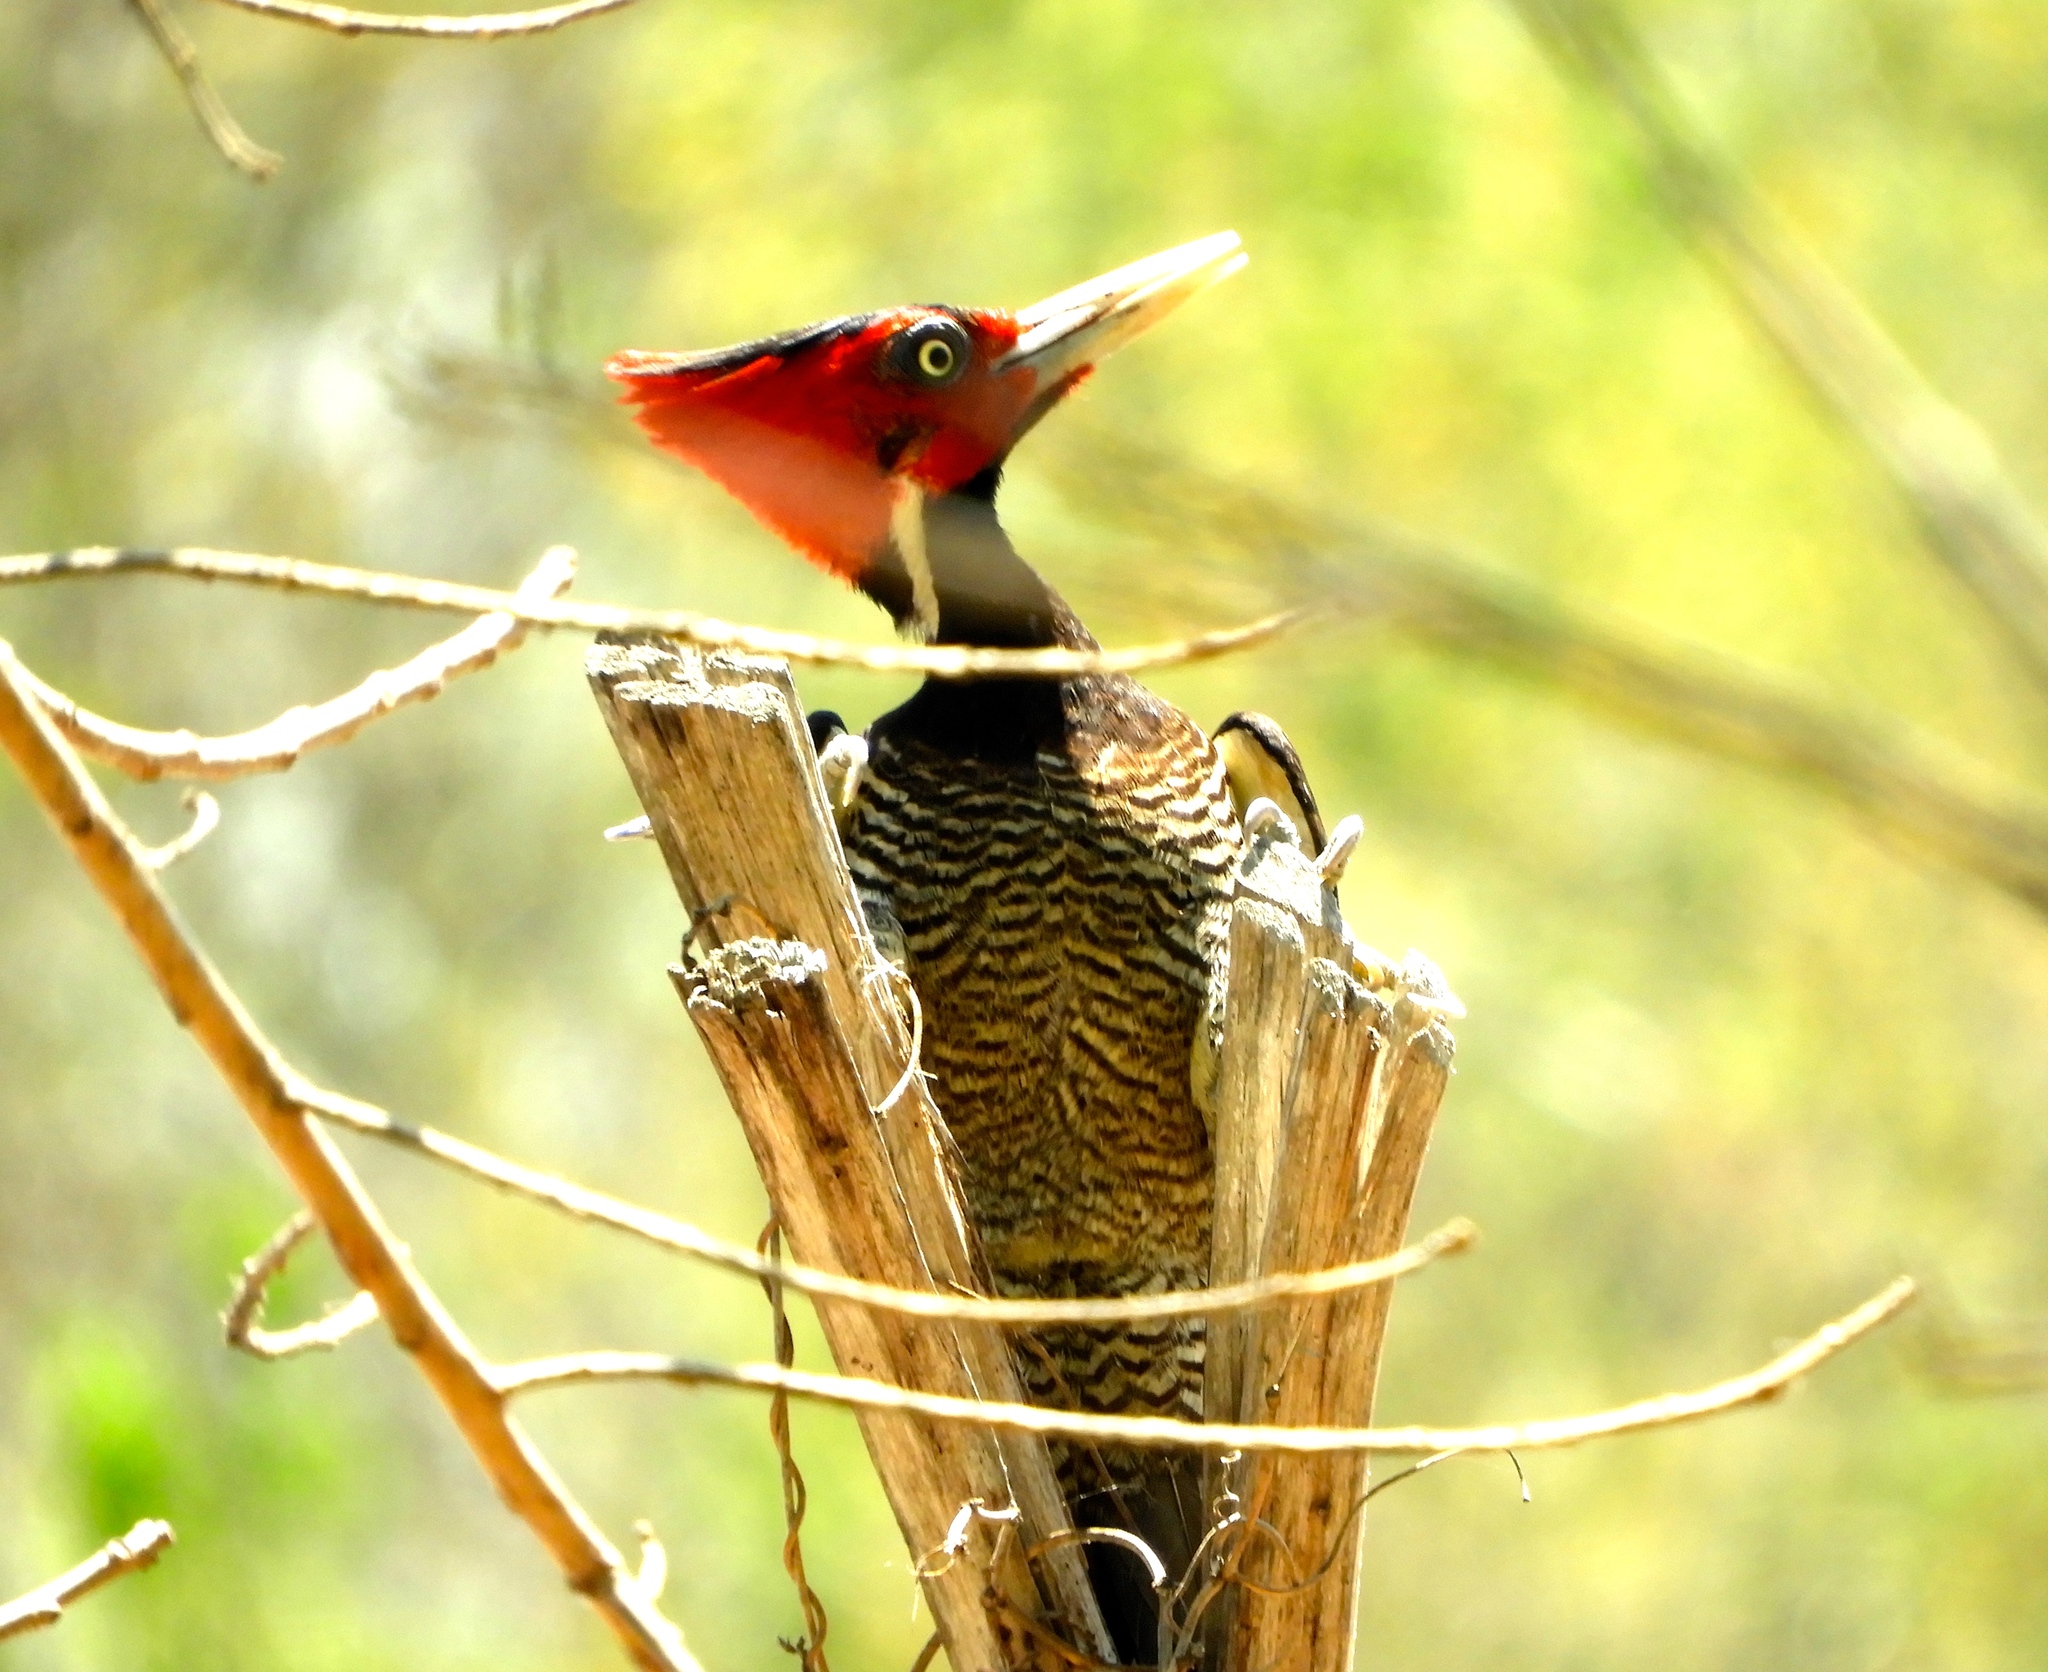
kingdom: Animalia
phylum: Chordata
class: Aves
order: Piciformes
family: Picidae
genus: Campephilus
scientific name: Campephilus guatemalensis
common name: Pale-billed woodpecker
